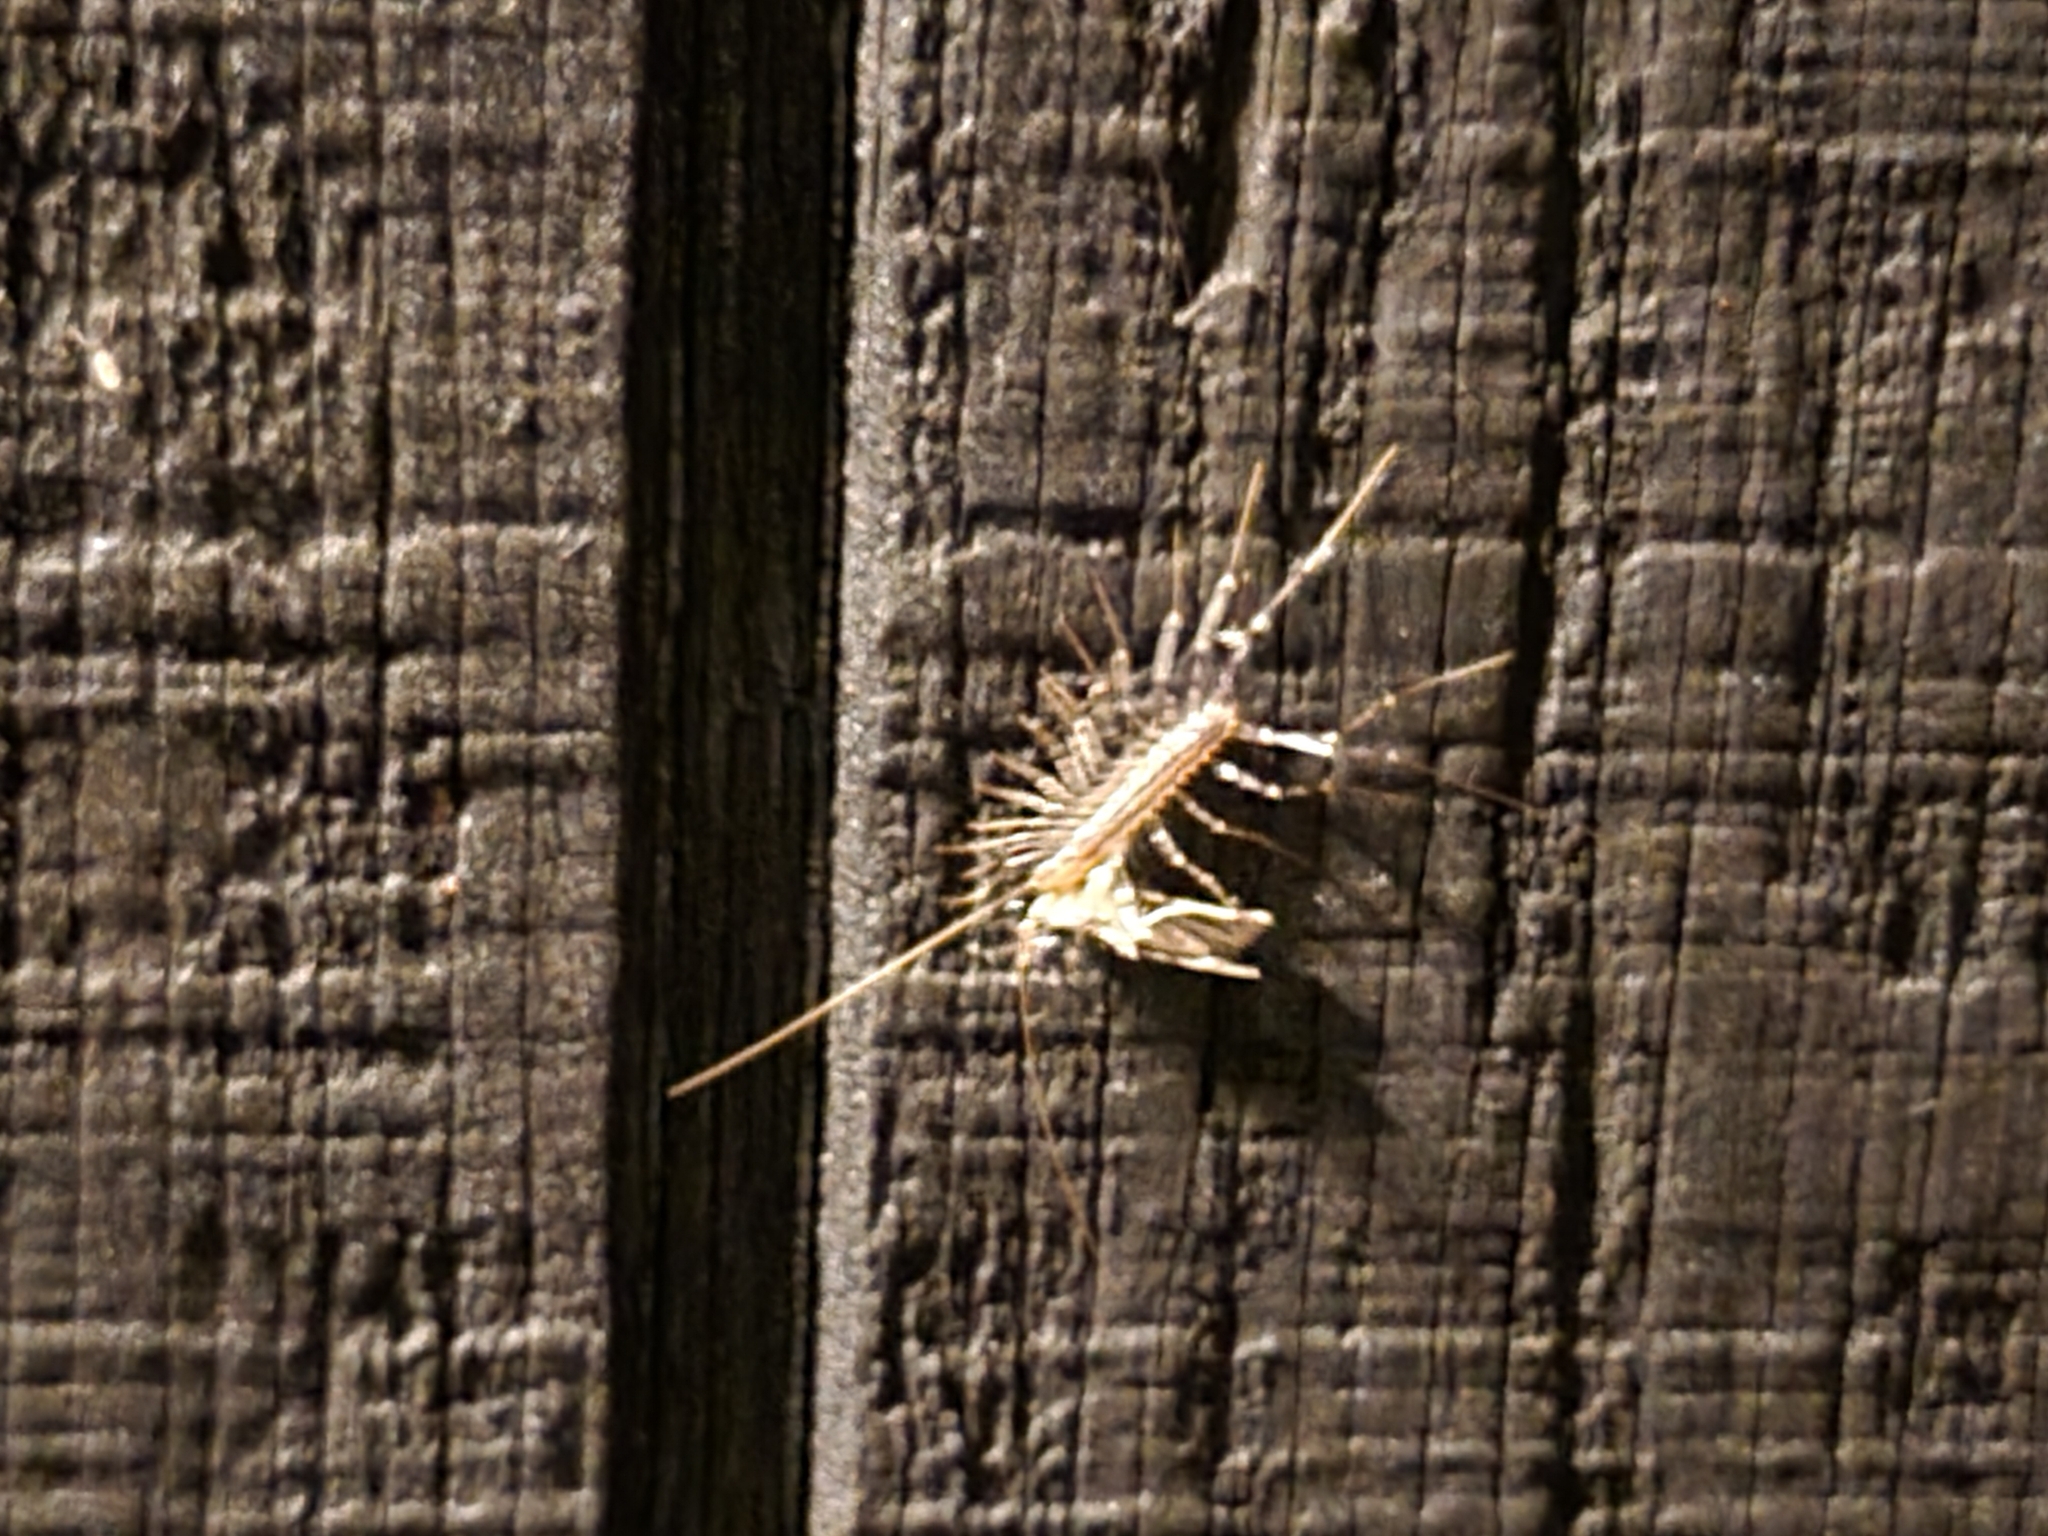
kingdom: Animalia
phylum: Arthropoda
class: Chilopoda
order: Scutigeromorpha
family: Scutigeridae
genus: Scutigera
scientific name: Scutigera coleoptrata
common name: House centipede
